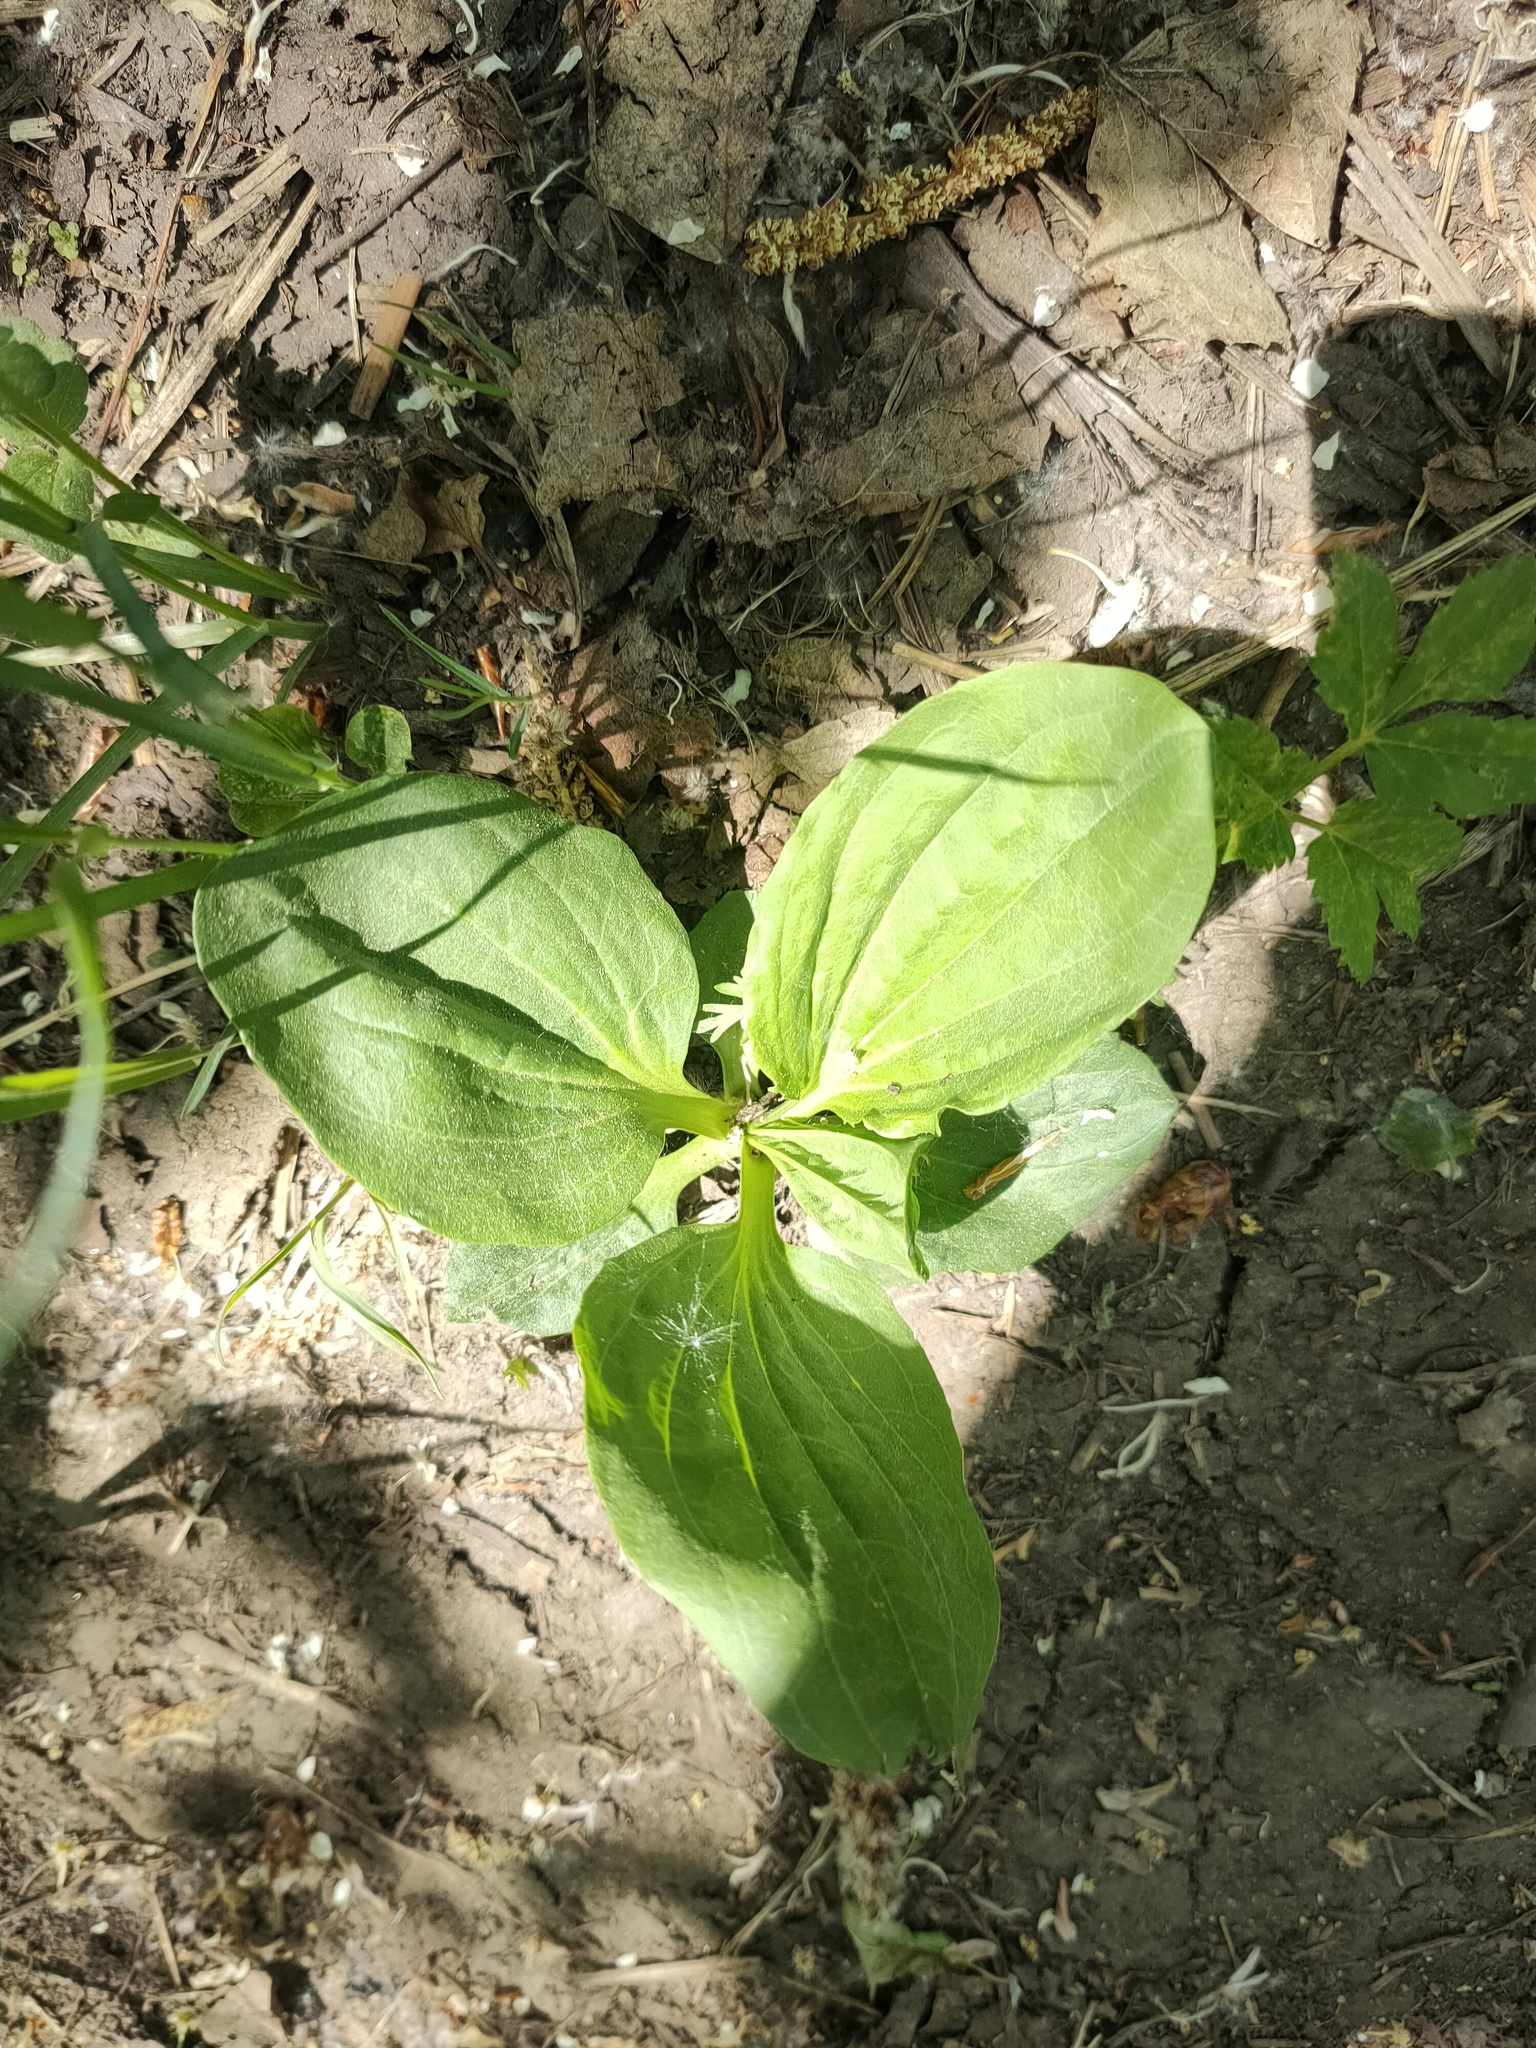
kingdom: Plantae
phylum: Tracheophyta
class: Magnoliopsida
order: Lamiales
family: Plantaginaceae
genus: Plantago
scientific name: Plantago major
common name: Common plantain
